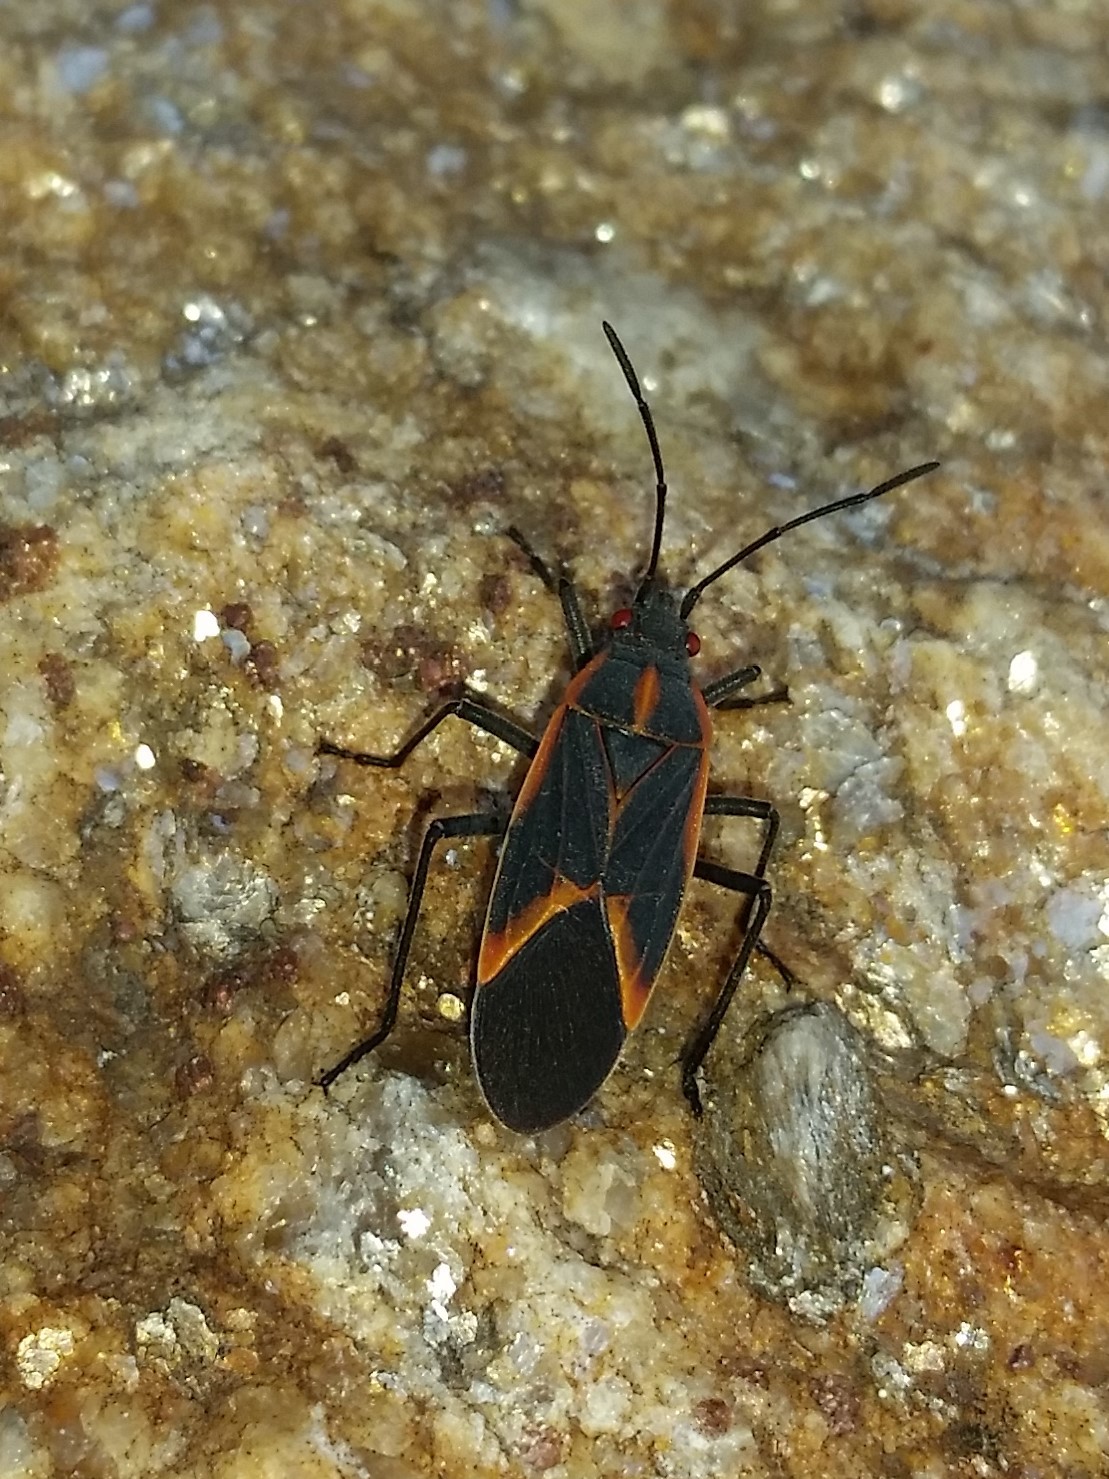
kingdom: Animalia
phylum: Arthropoda
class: Insecta
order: Hemiptera
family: Rhopalidae
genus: Boisea
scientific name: Boisea trivittata
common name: Boxelder bug
